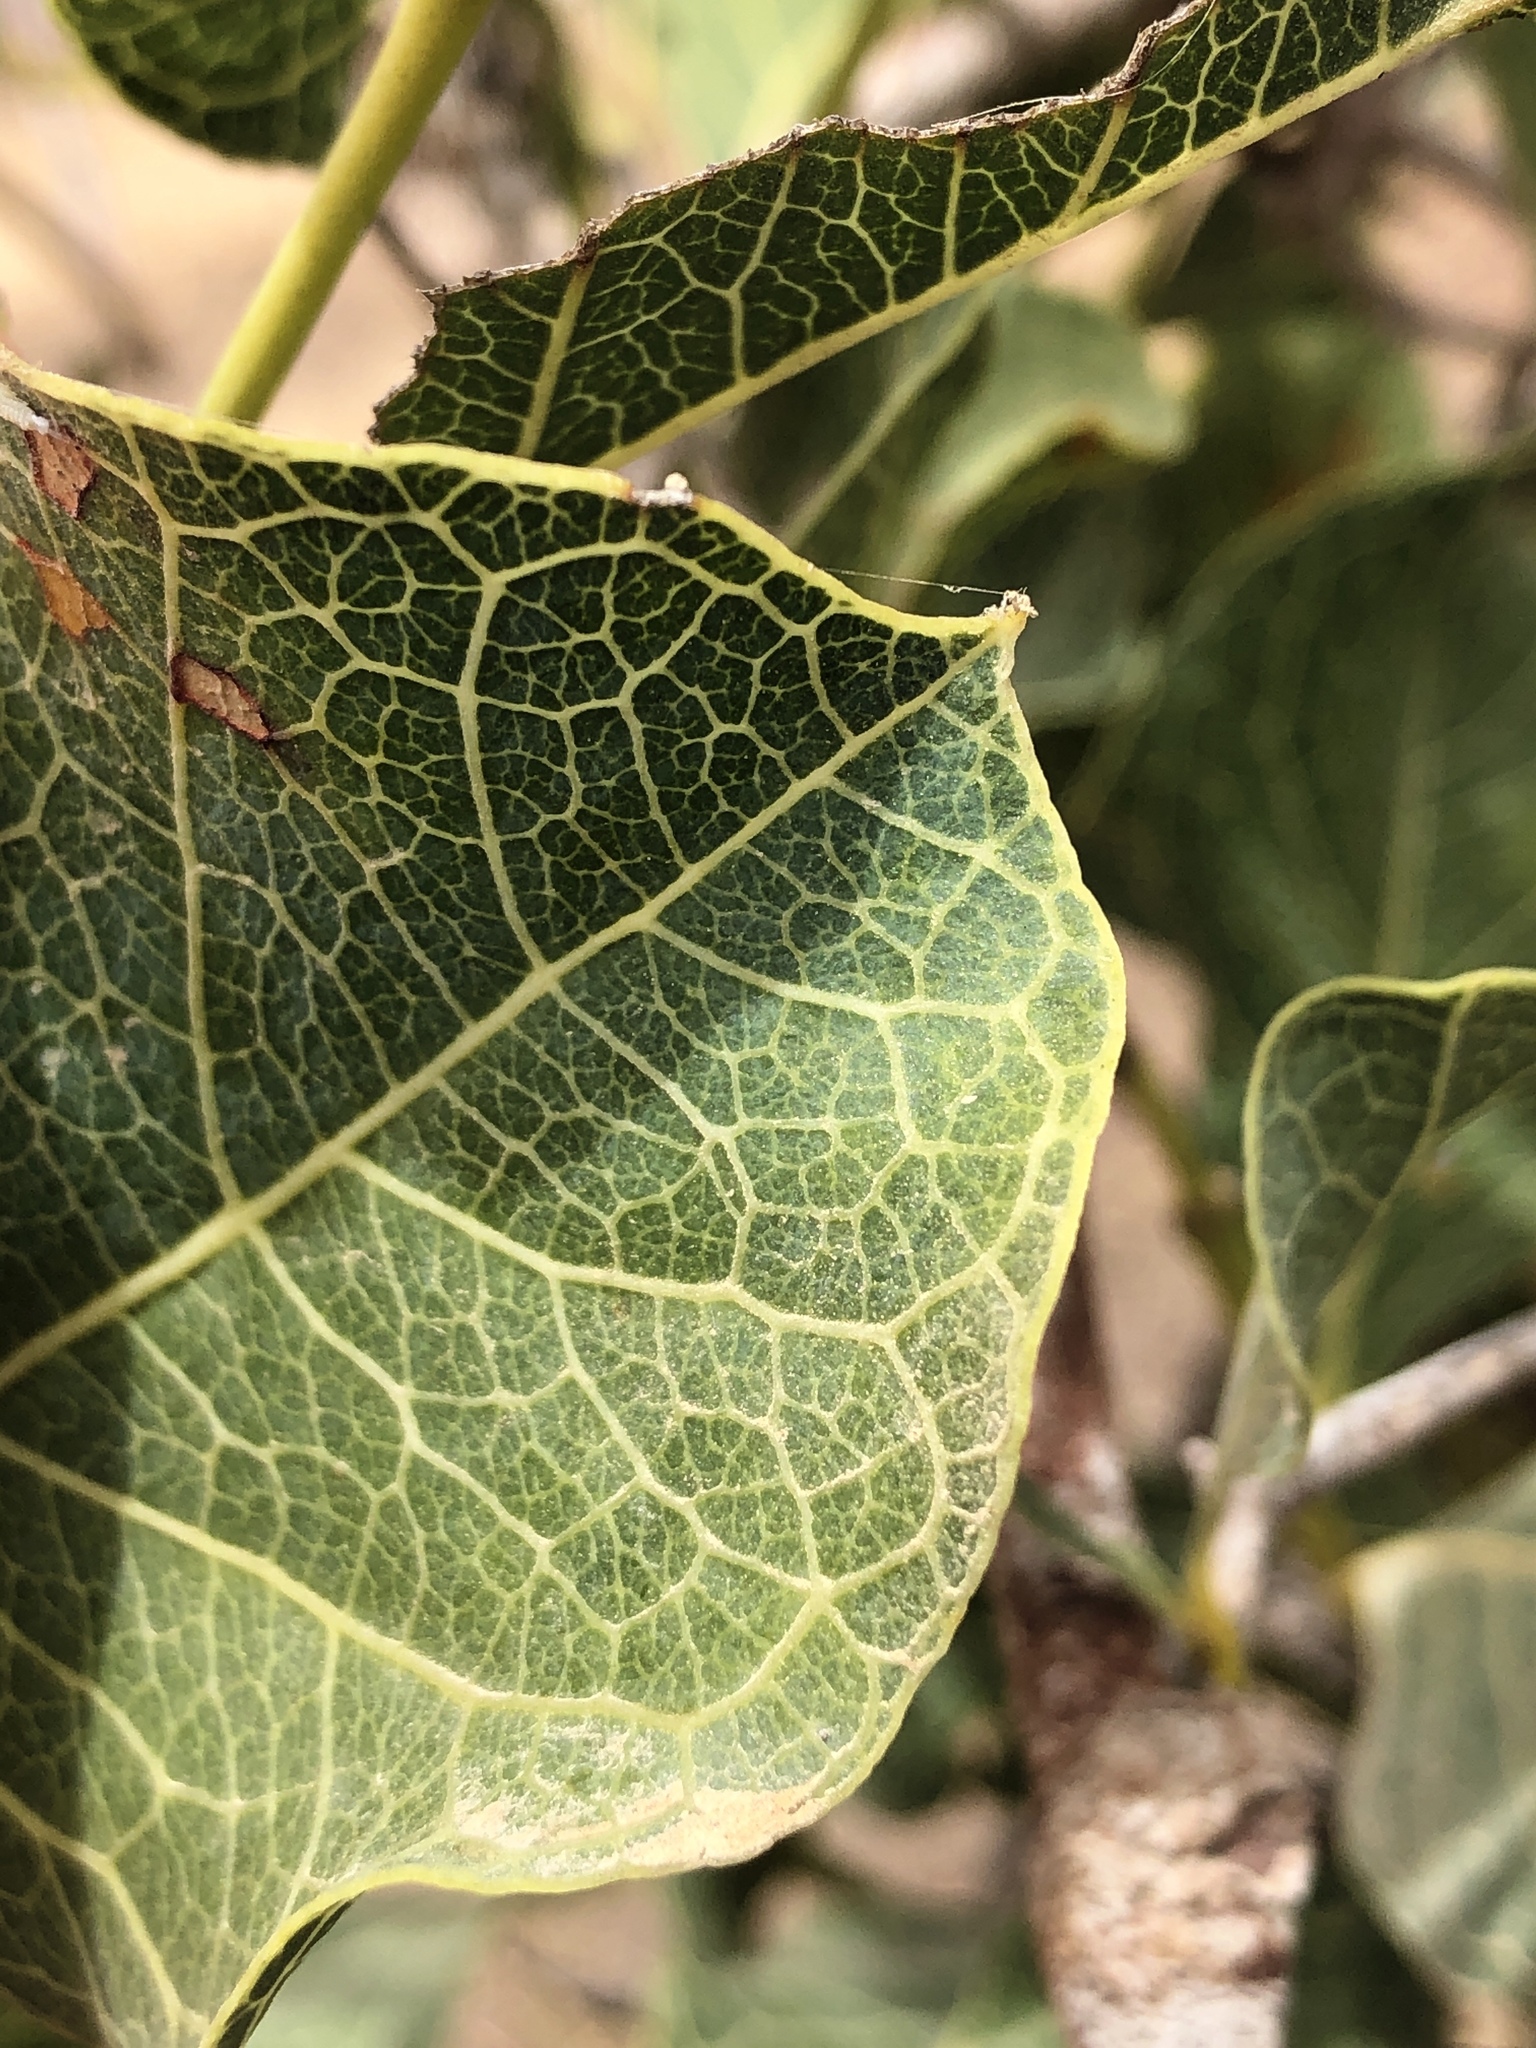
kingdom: Plantae
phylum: Tracheophyta
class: Magnoliopsida
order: Gentianales
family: Rubiaceae
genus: Coelospermum
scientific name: Coelospermum reticulatum
